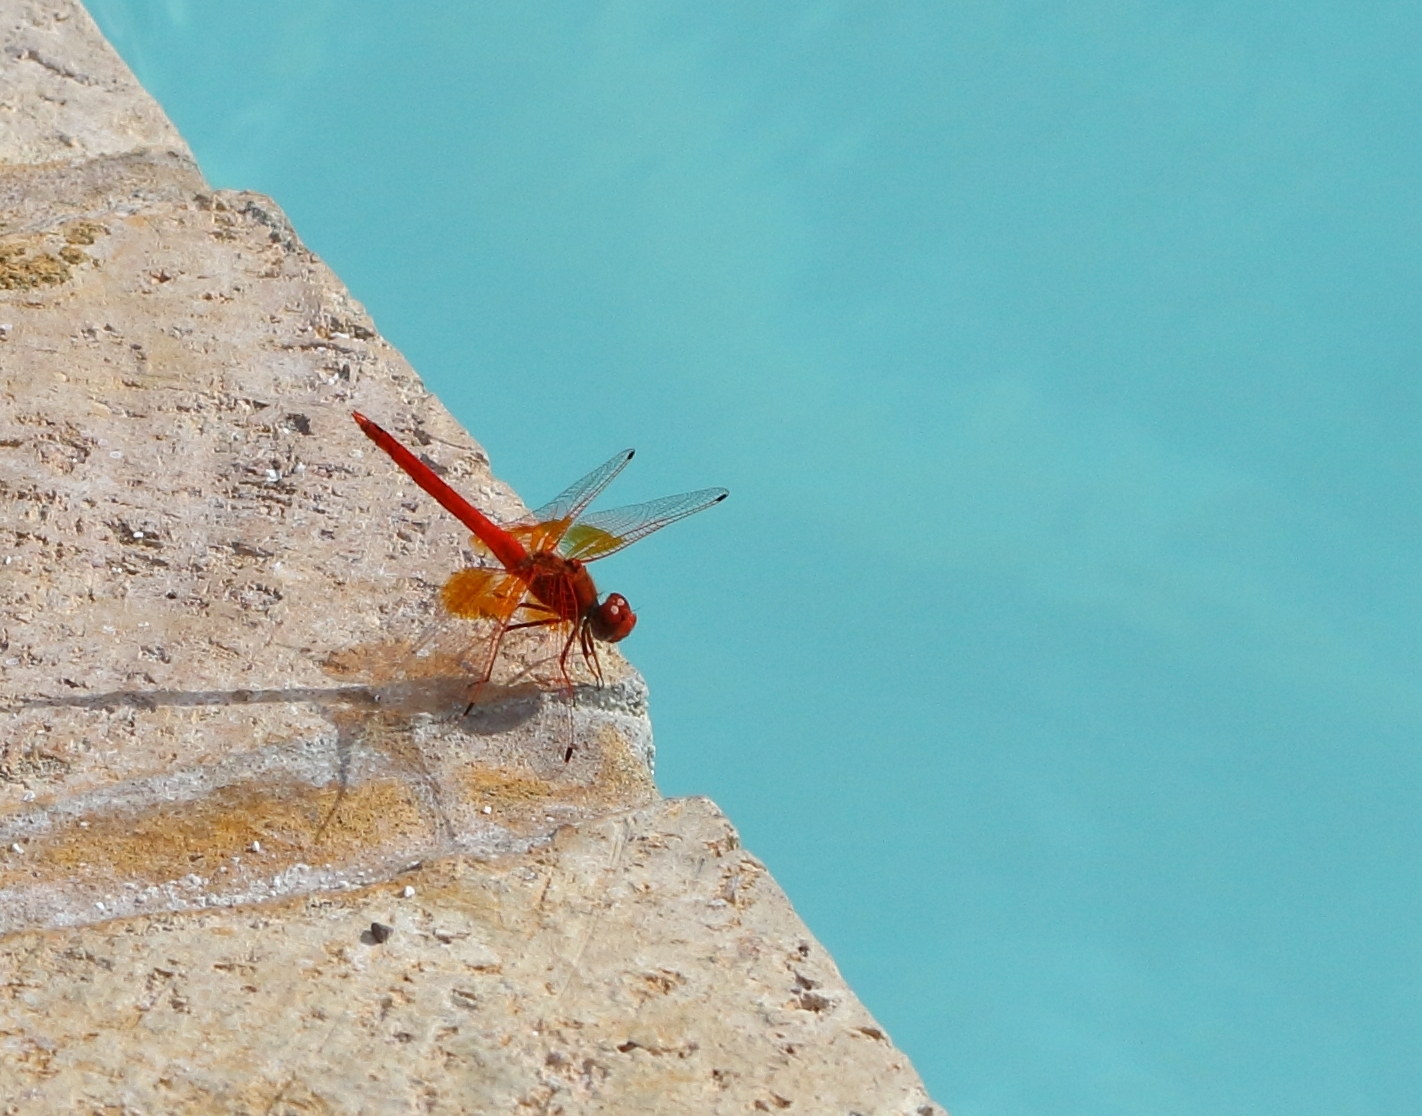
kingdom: Animalia
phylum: Arthropoda
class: Insecta
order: Odonata
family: Libellulidae
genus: Trithemis
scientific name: Trithemis kirbyi
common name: Kirby's dropwing
